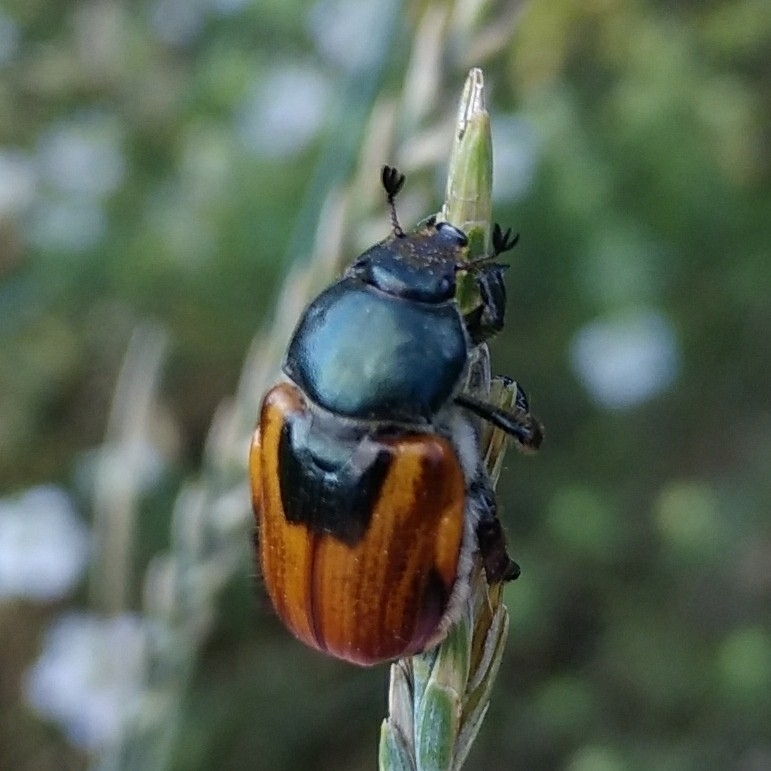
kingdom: Animalia
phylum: Arthropoda
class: Insecta
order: Coleoptera
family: Scarabaeidae
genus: Anisoplia
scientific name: Anisoplia austriaca
